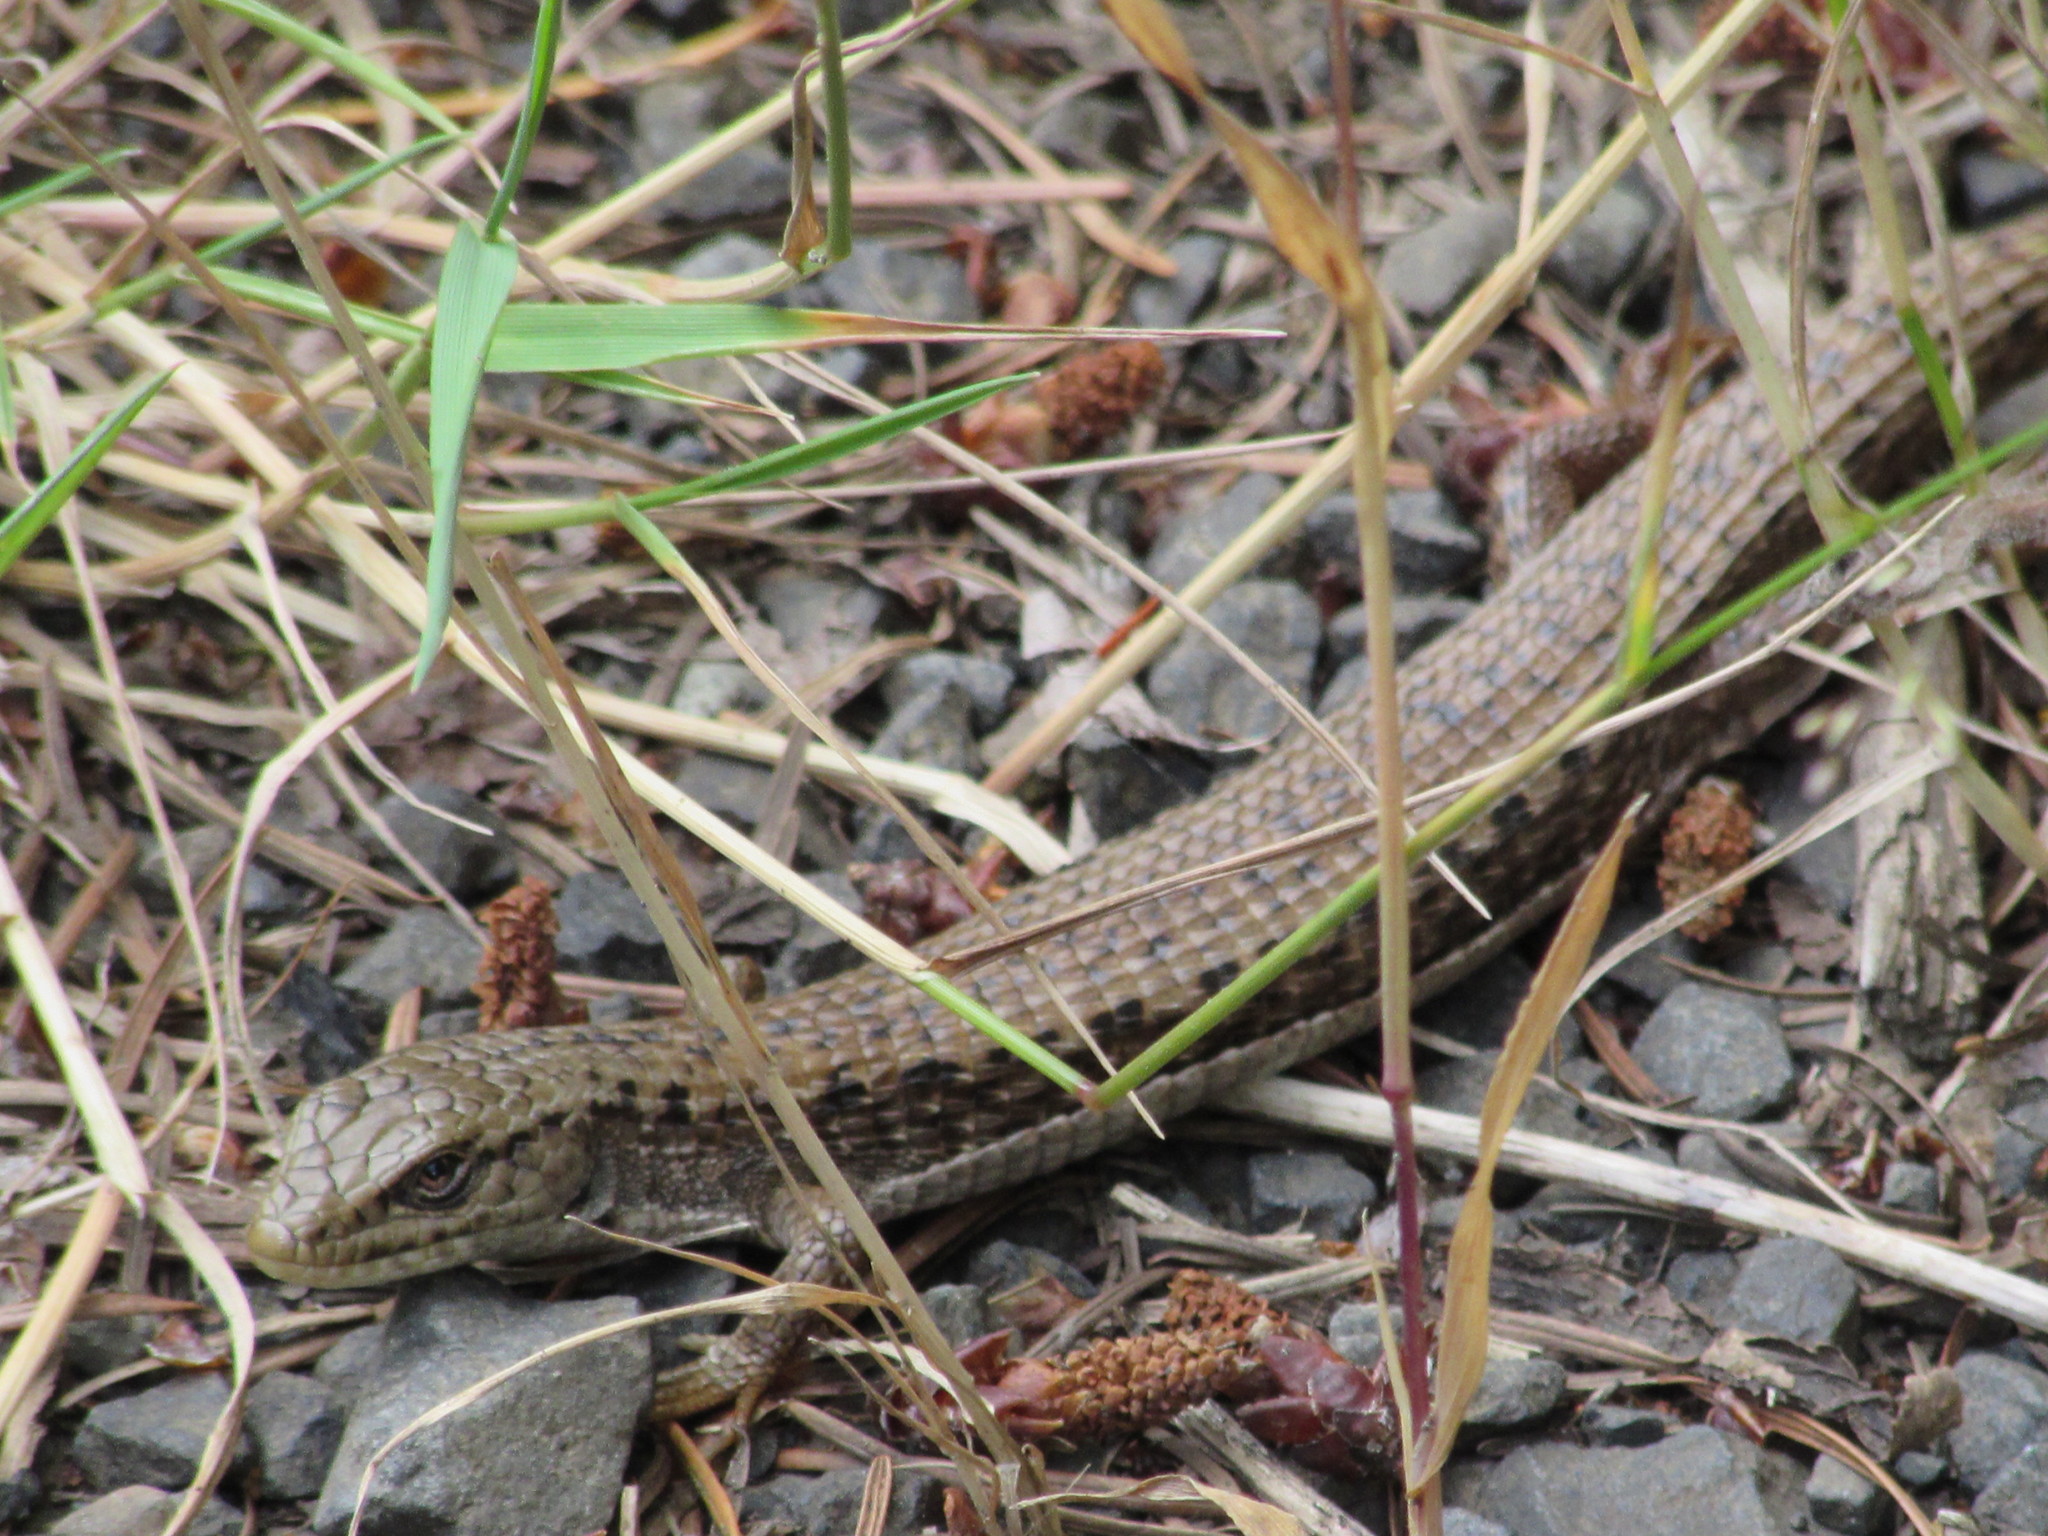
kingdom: Animalia
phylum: Chordata
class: Squamata
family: Anguidae
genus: Elgaria
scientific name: Elgaria coerulea
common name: Northern alligator lizard
